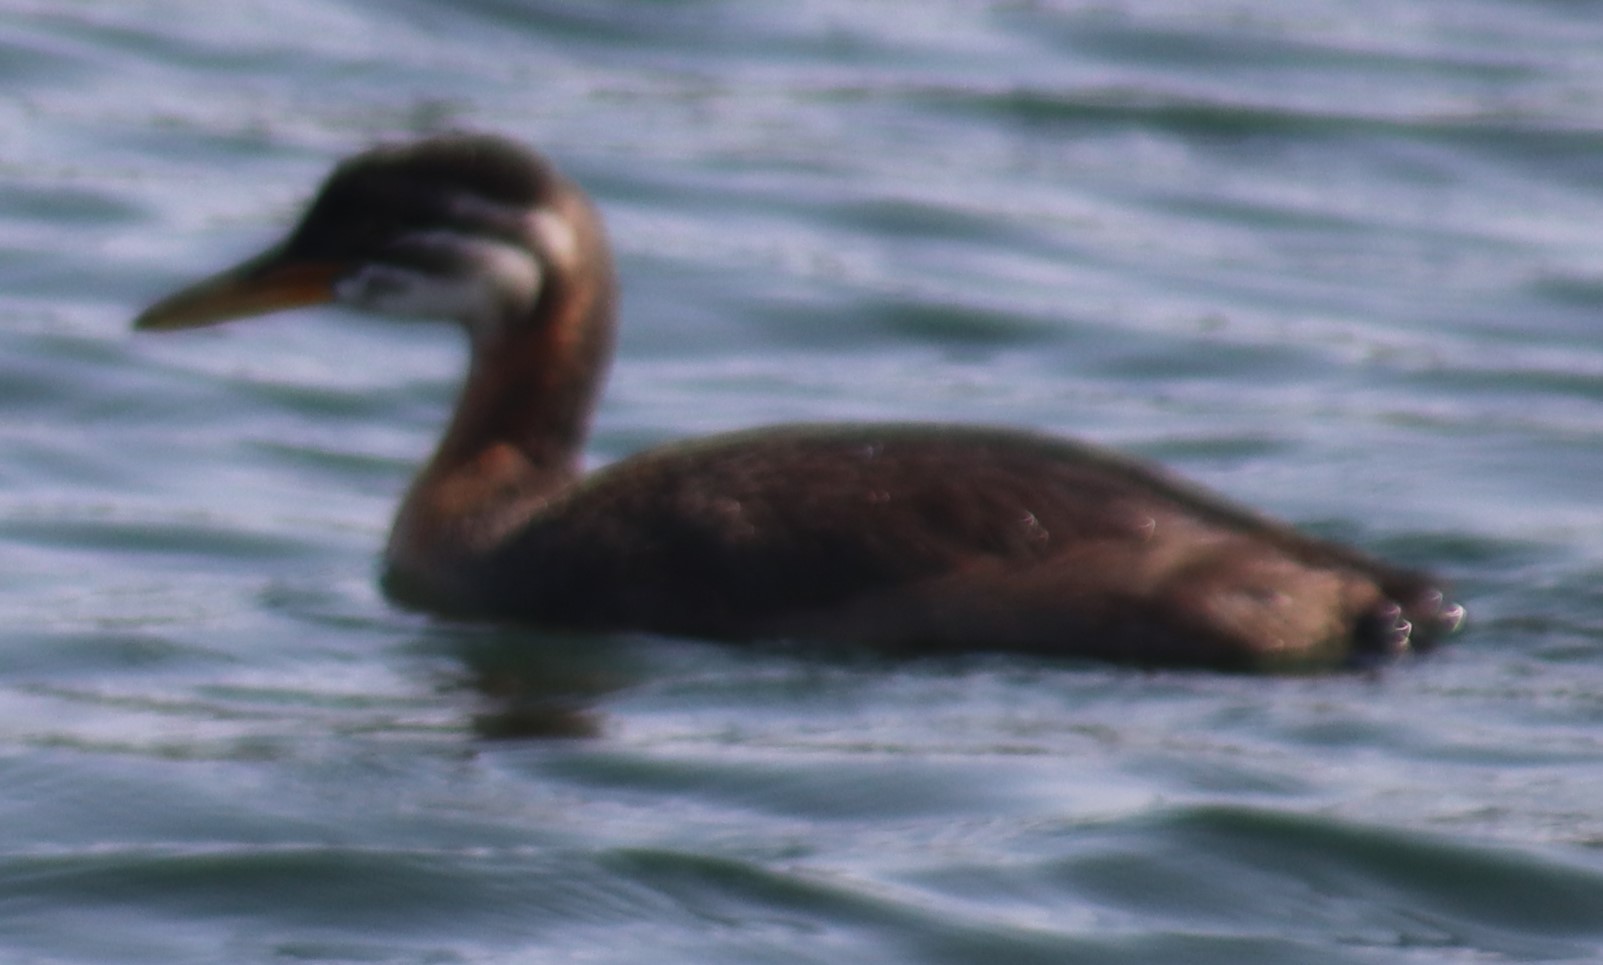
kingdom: Animalia
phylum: Chordata
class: Aves
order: Podicipediformes
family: Podicipedidae
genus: Podiceps
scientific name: Podiceps grisegena
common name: Red-necked grebe
